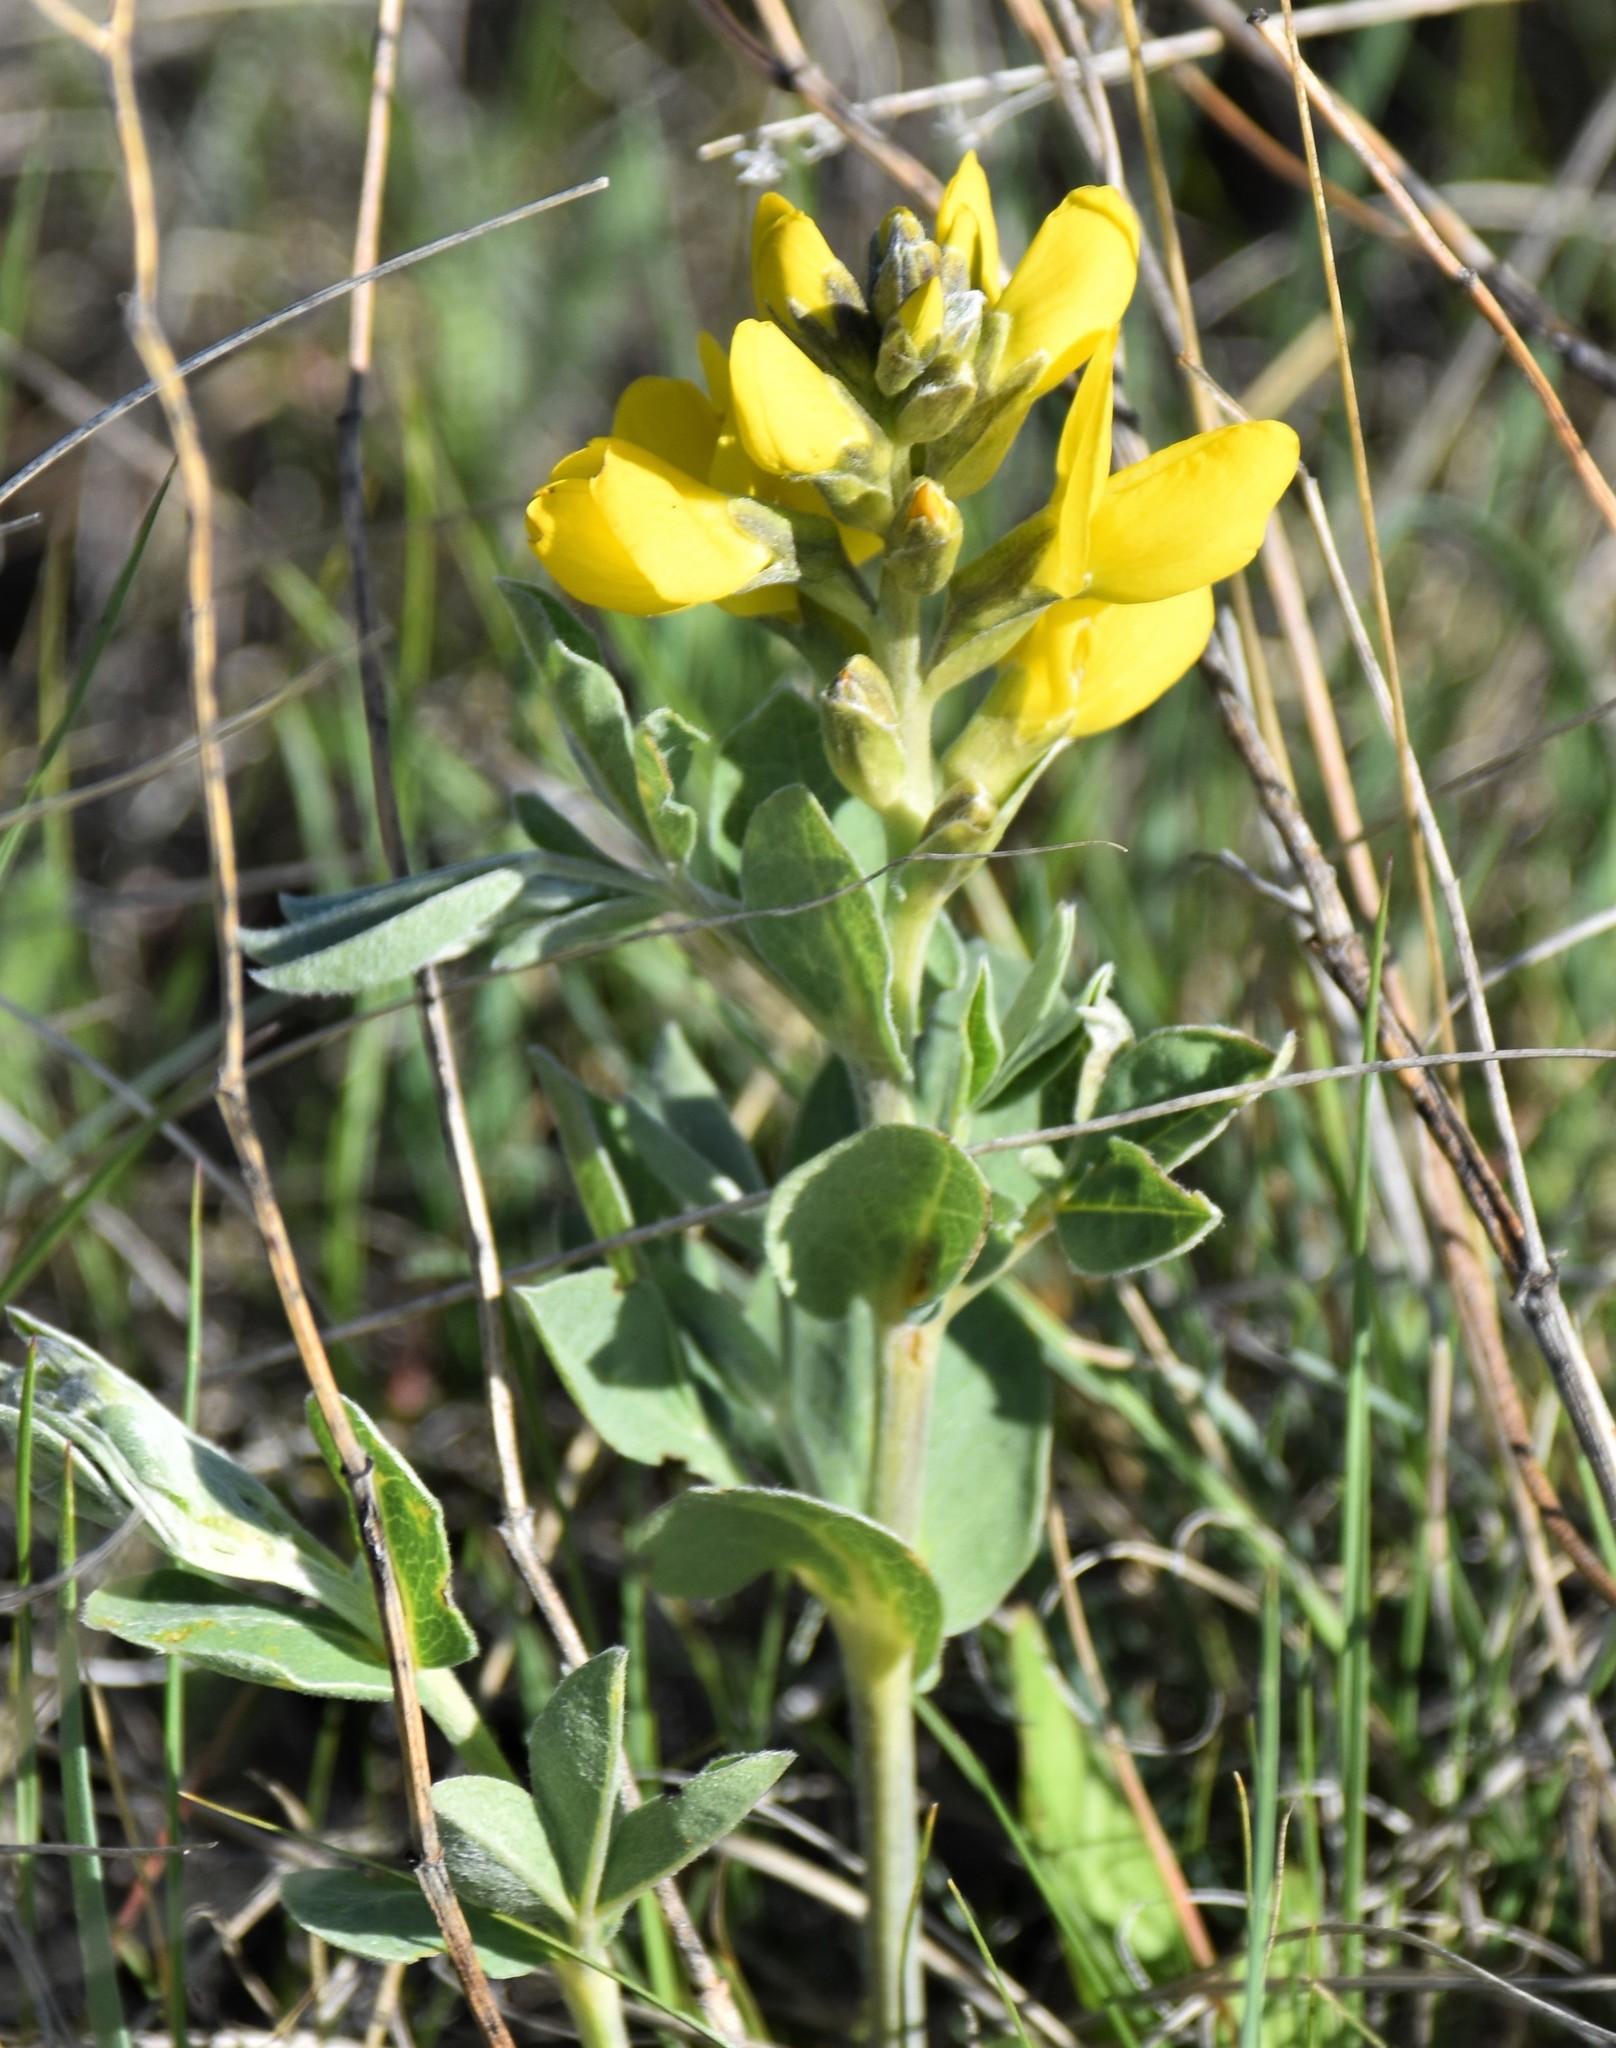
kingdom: Plantae
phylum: Tracheophyta
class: Magnoliopsida
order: Fabales
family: Fabaceae
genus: Thermopsis
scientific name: Thermopsis rhombifolia
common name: Circle-pod-pea
